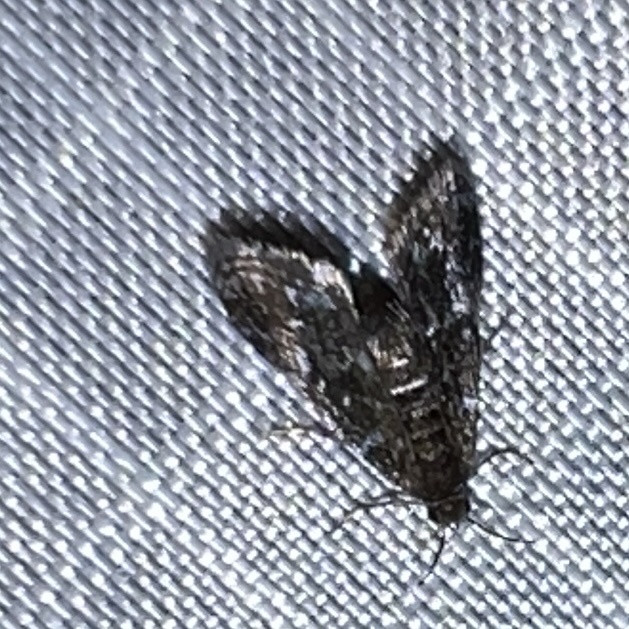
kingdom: Animalia
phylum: Arthropoda
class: Insecta
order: Lepidoptera
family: Crambidae
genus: Elophila
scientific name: Elophila tinealis
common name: Black duckweed moth
